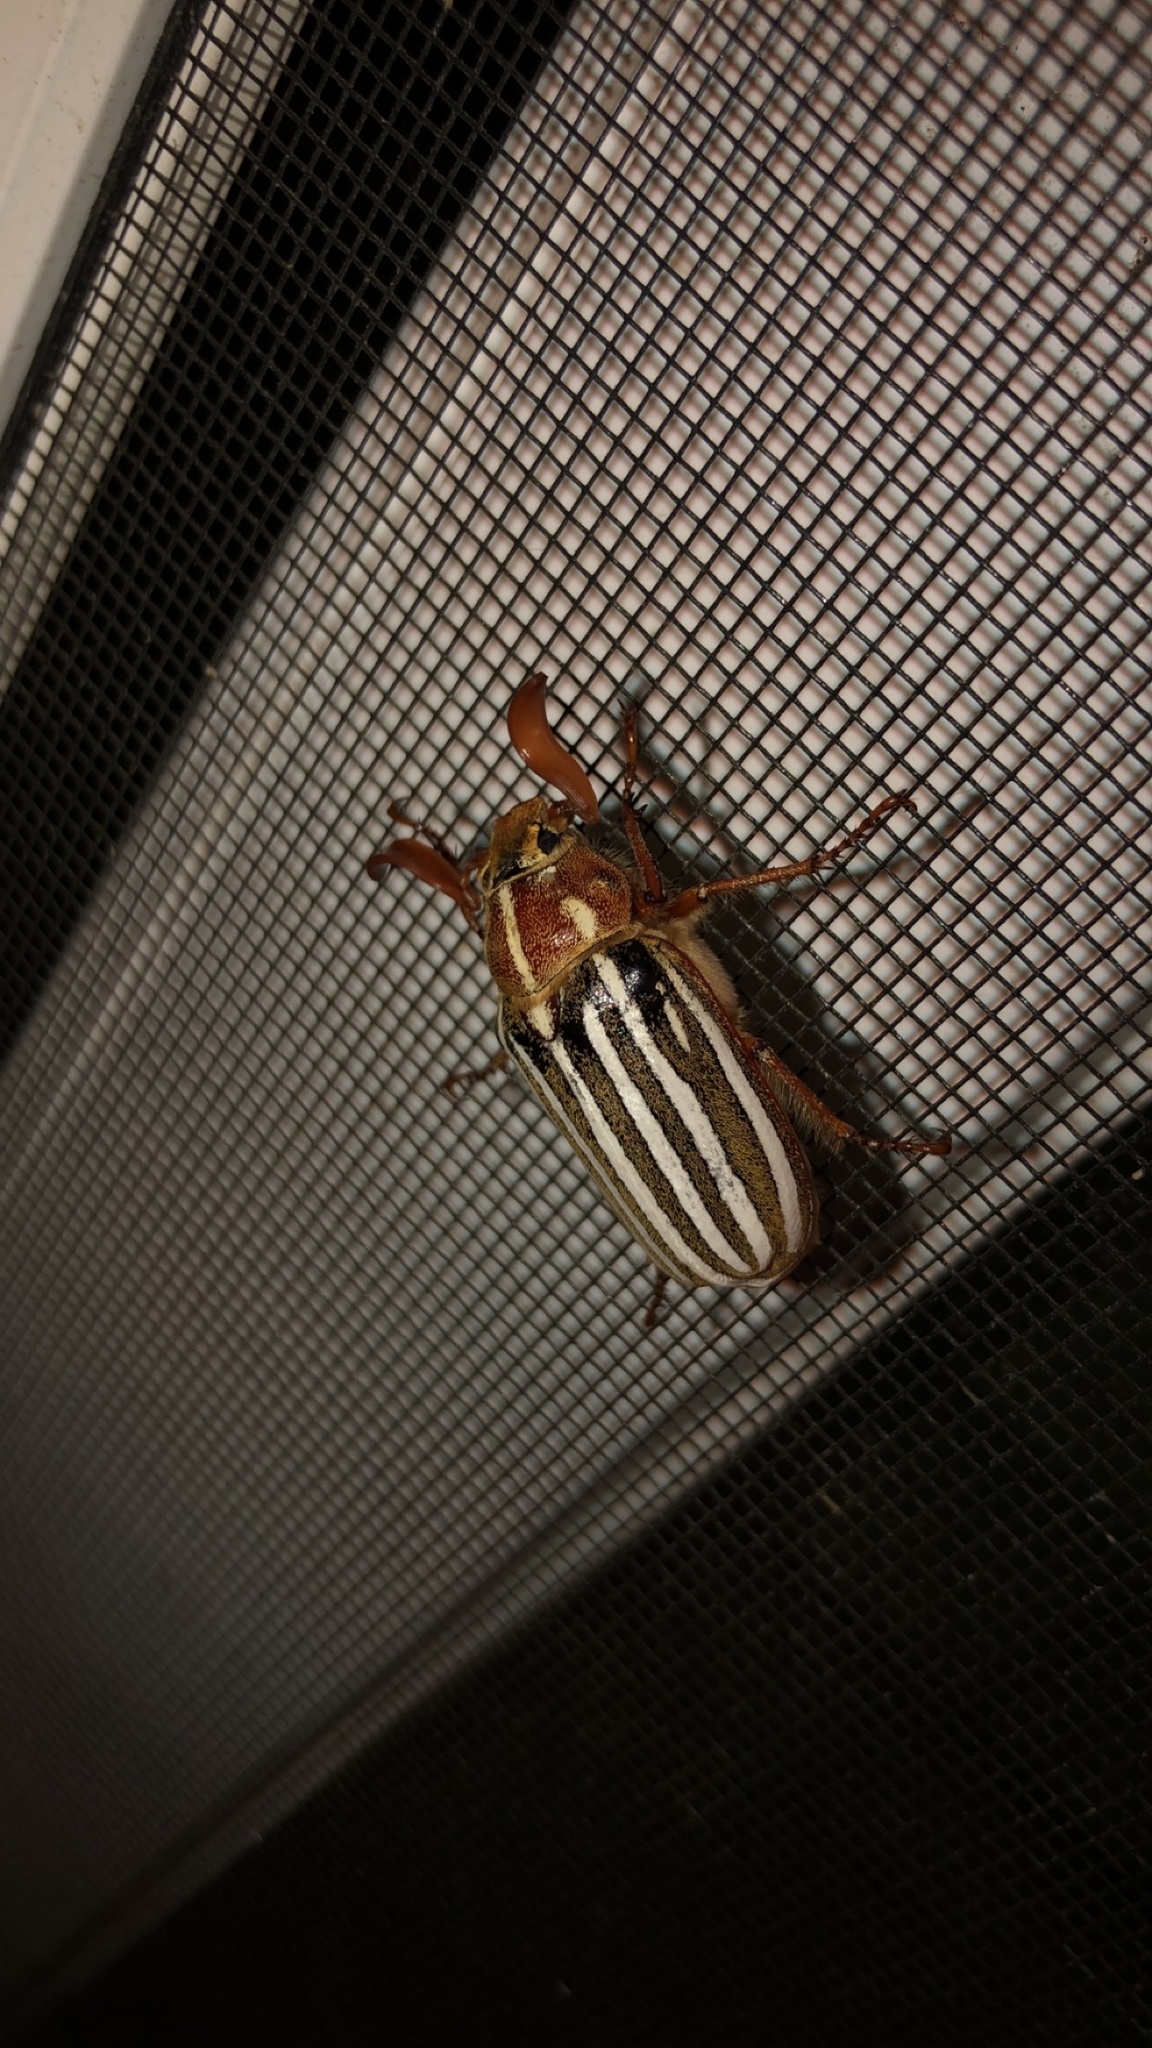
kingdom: Animalia
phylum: Arthropoda
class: Insecta
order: Coleoptera
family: Scarabaeidae
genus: Polyphylla
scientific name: Polyphylla decemlineata
